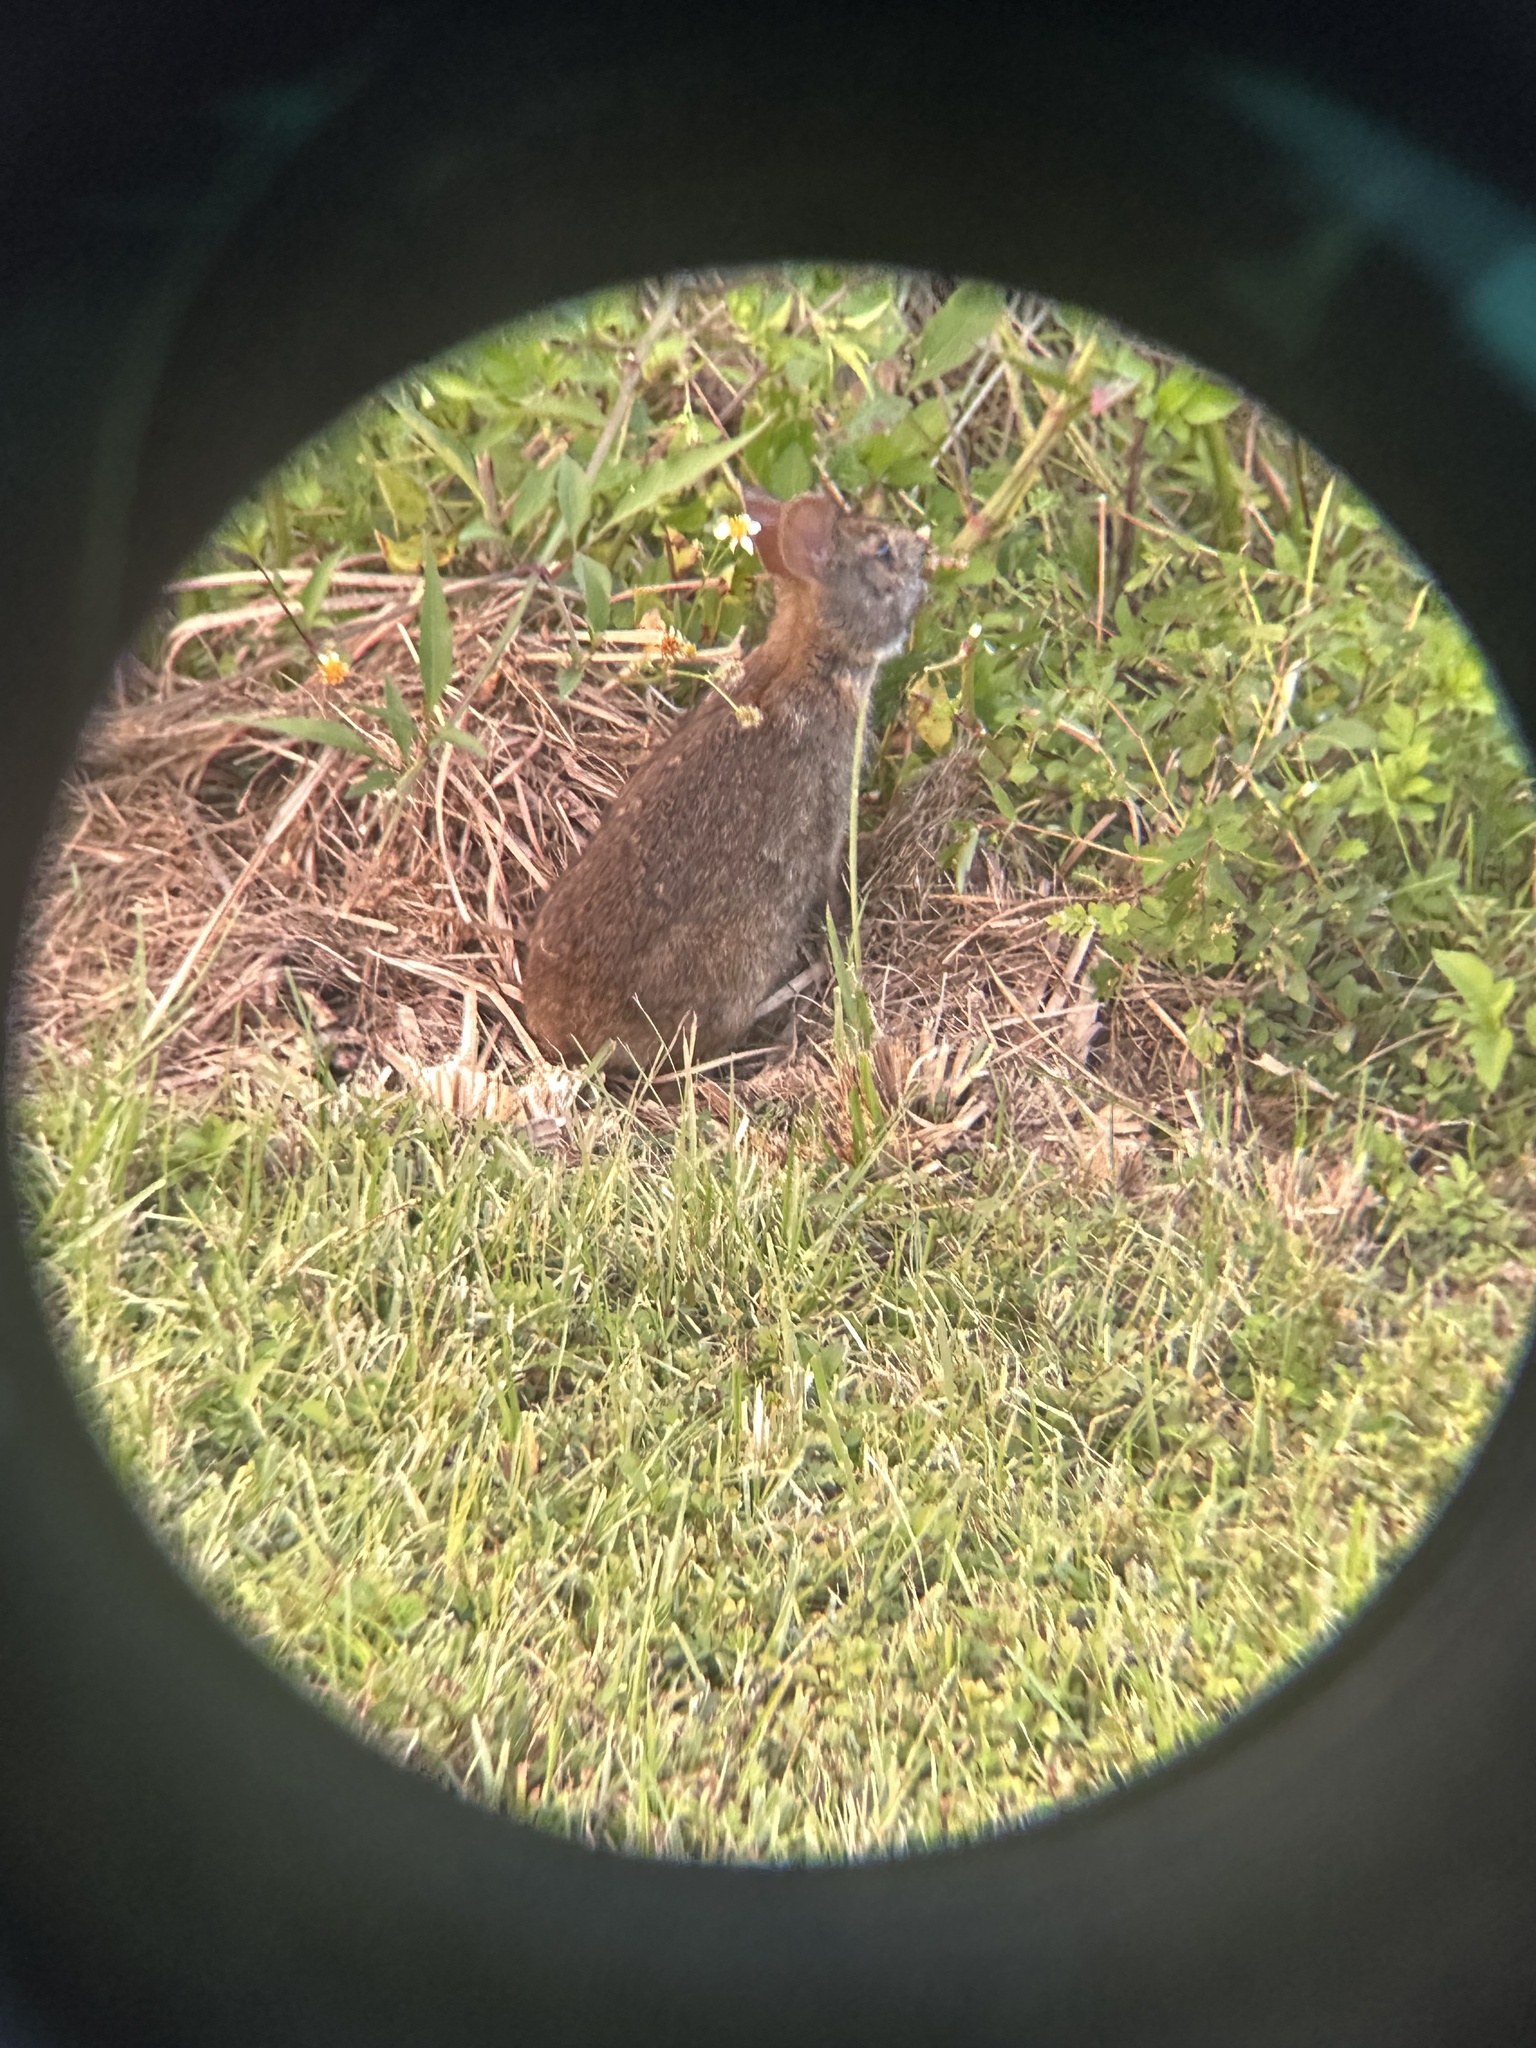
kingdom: Animalia
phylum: Chordata
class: Mammalia
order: Lagomorpha
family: Leporidae
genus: Sylvilagus
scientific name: Sylvilagus palustris
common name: Marsh rabbit
